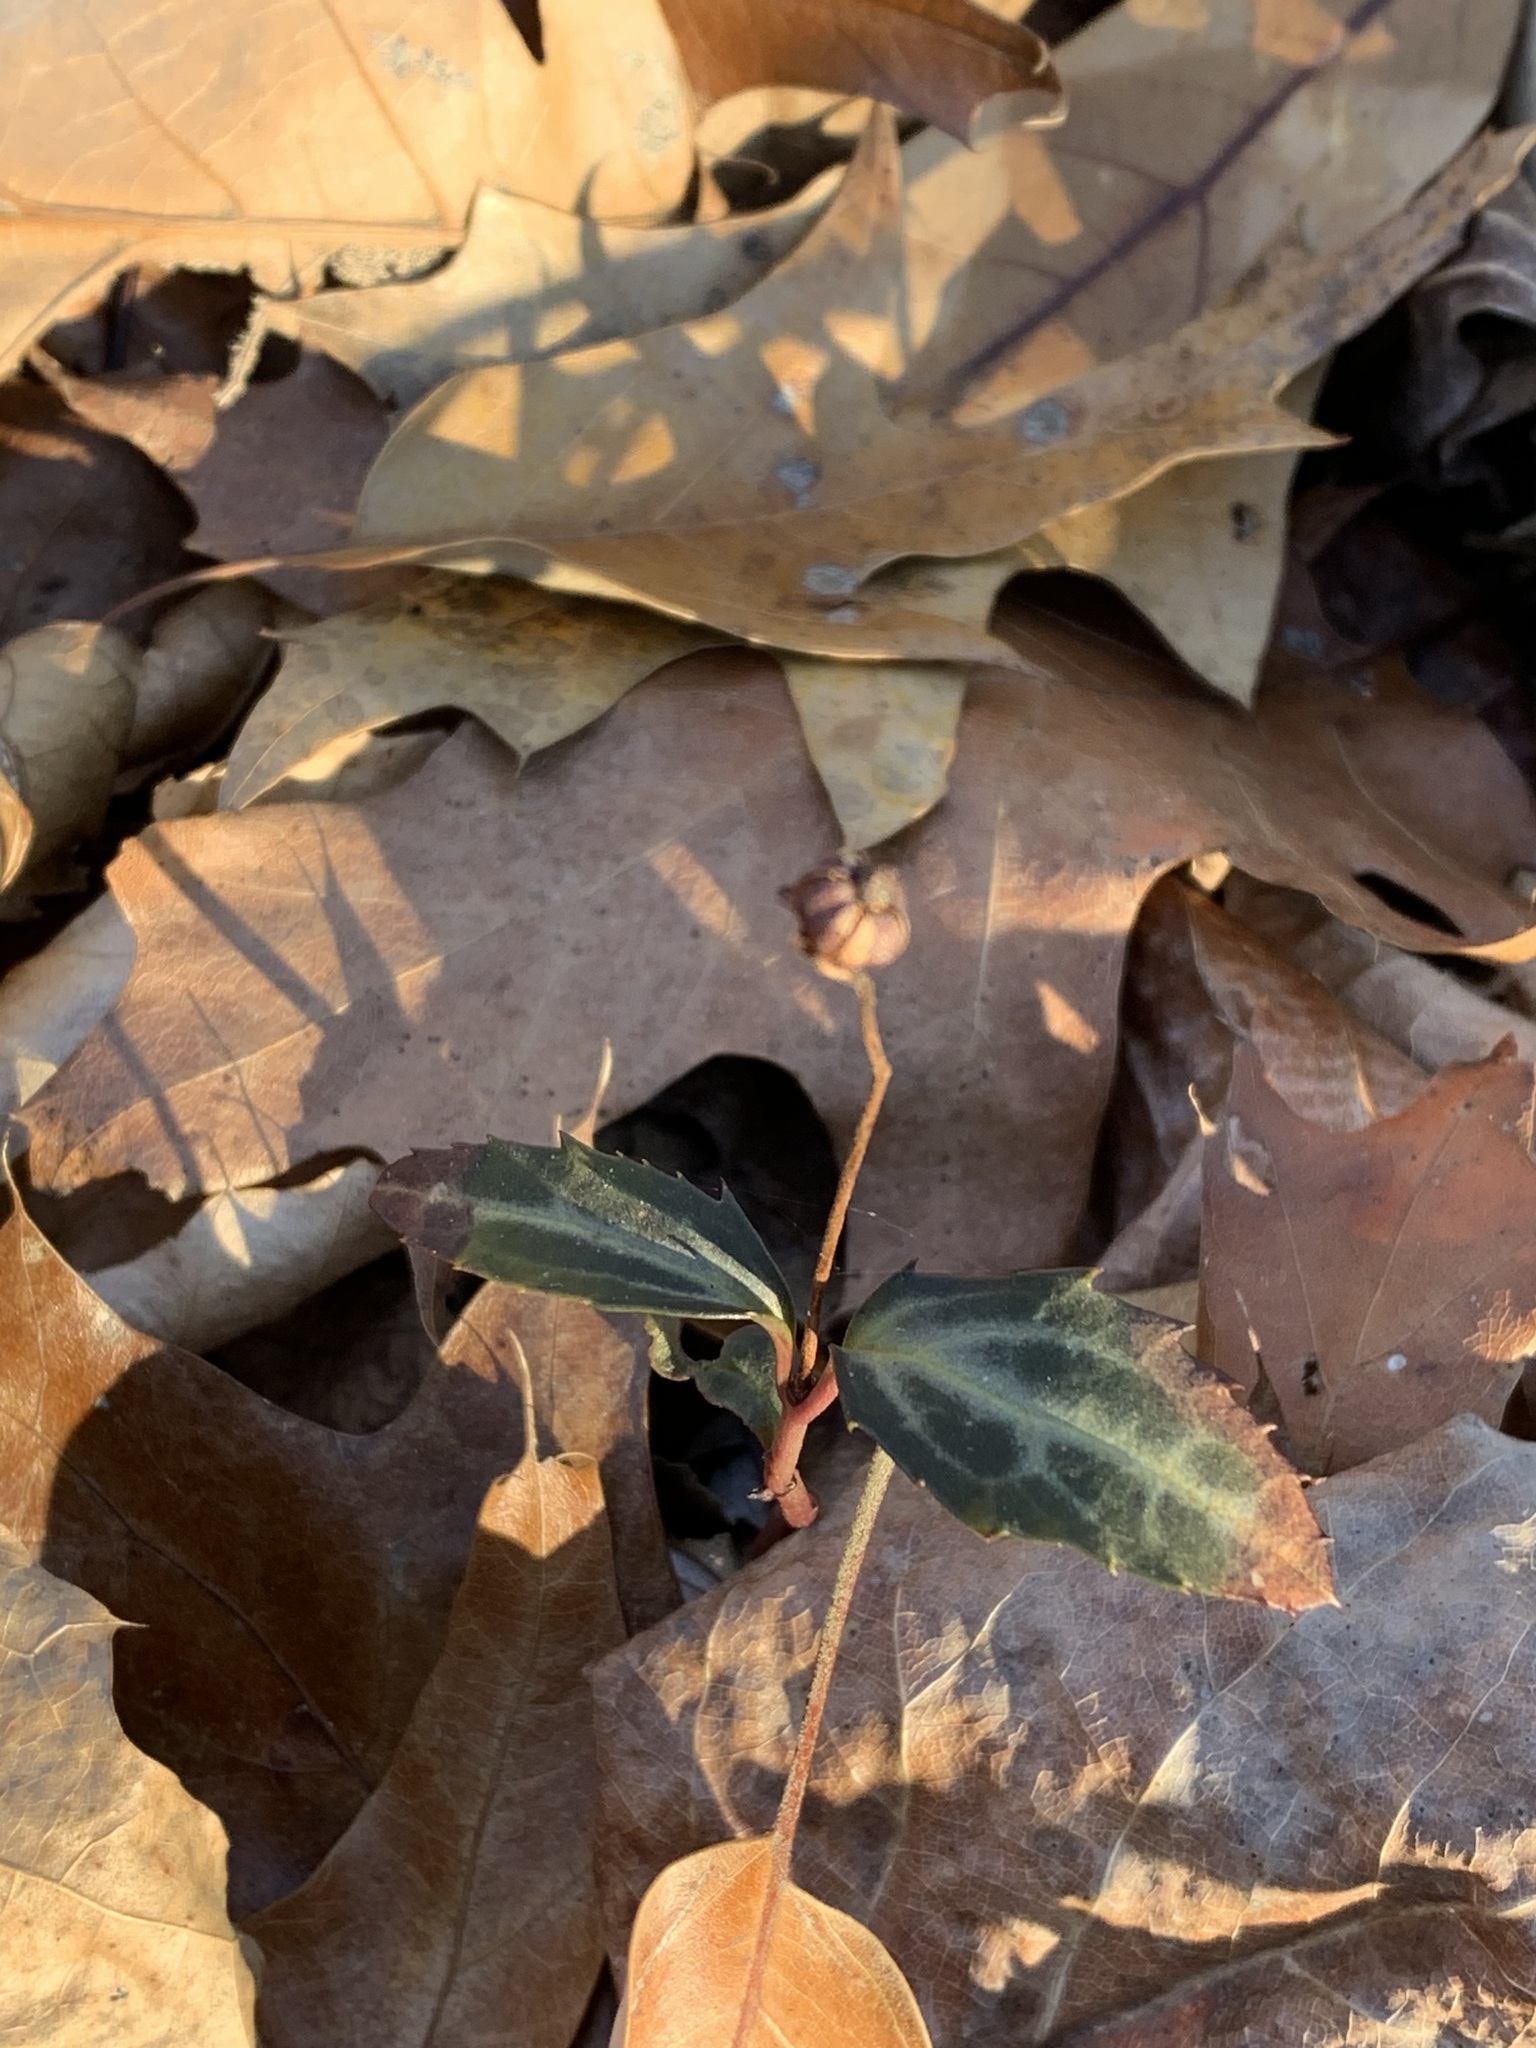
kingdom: Plantae
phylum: Tracheophyta
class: Magnoliopsida
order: Ericales
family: Ericaceae
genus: Chimaphila
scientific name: Chimaphila maculata
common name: Spotted pipsissewa
